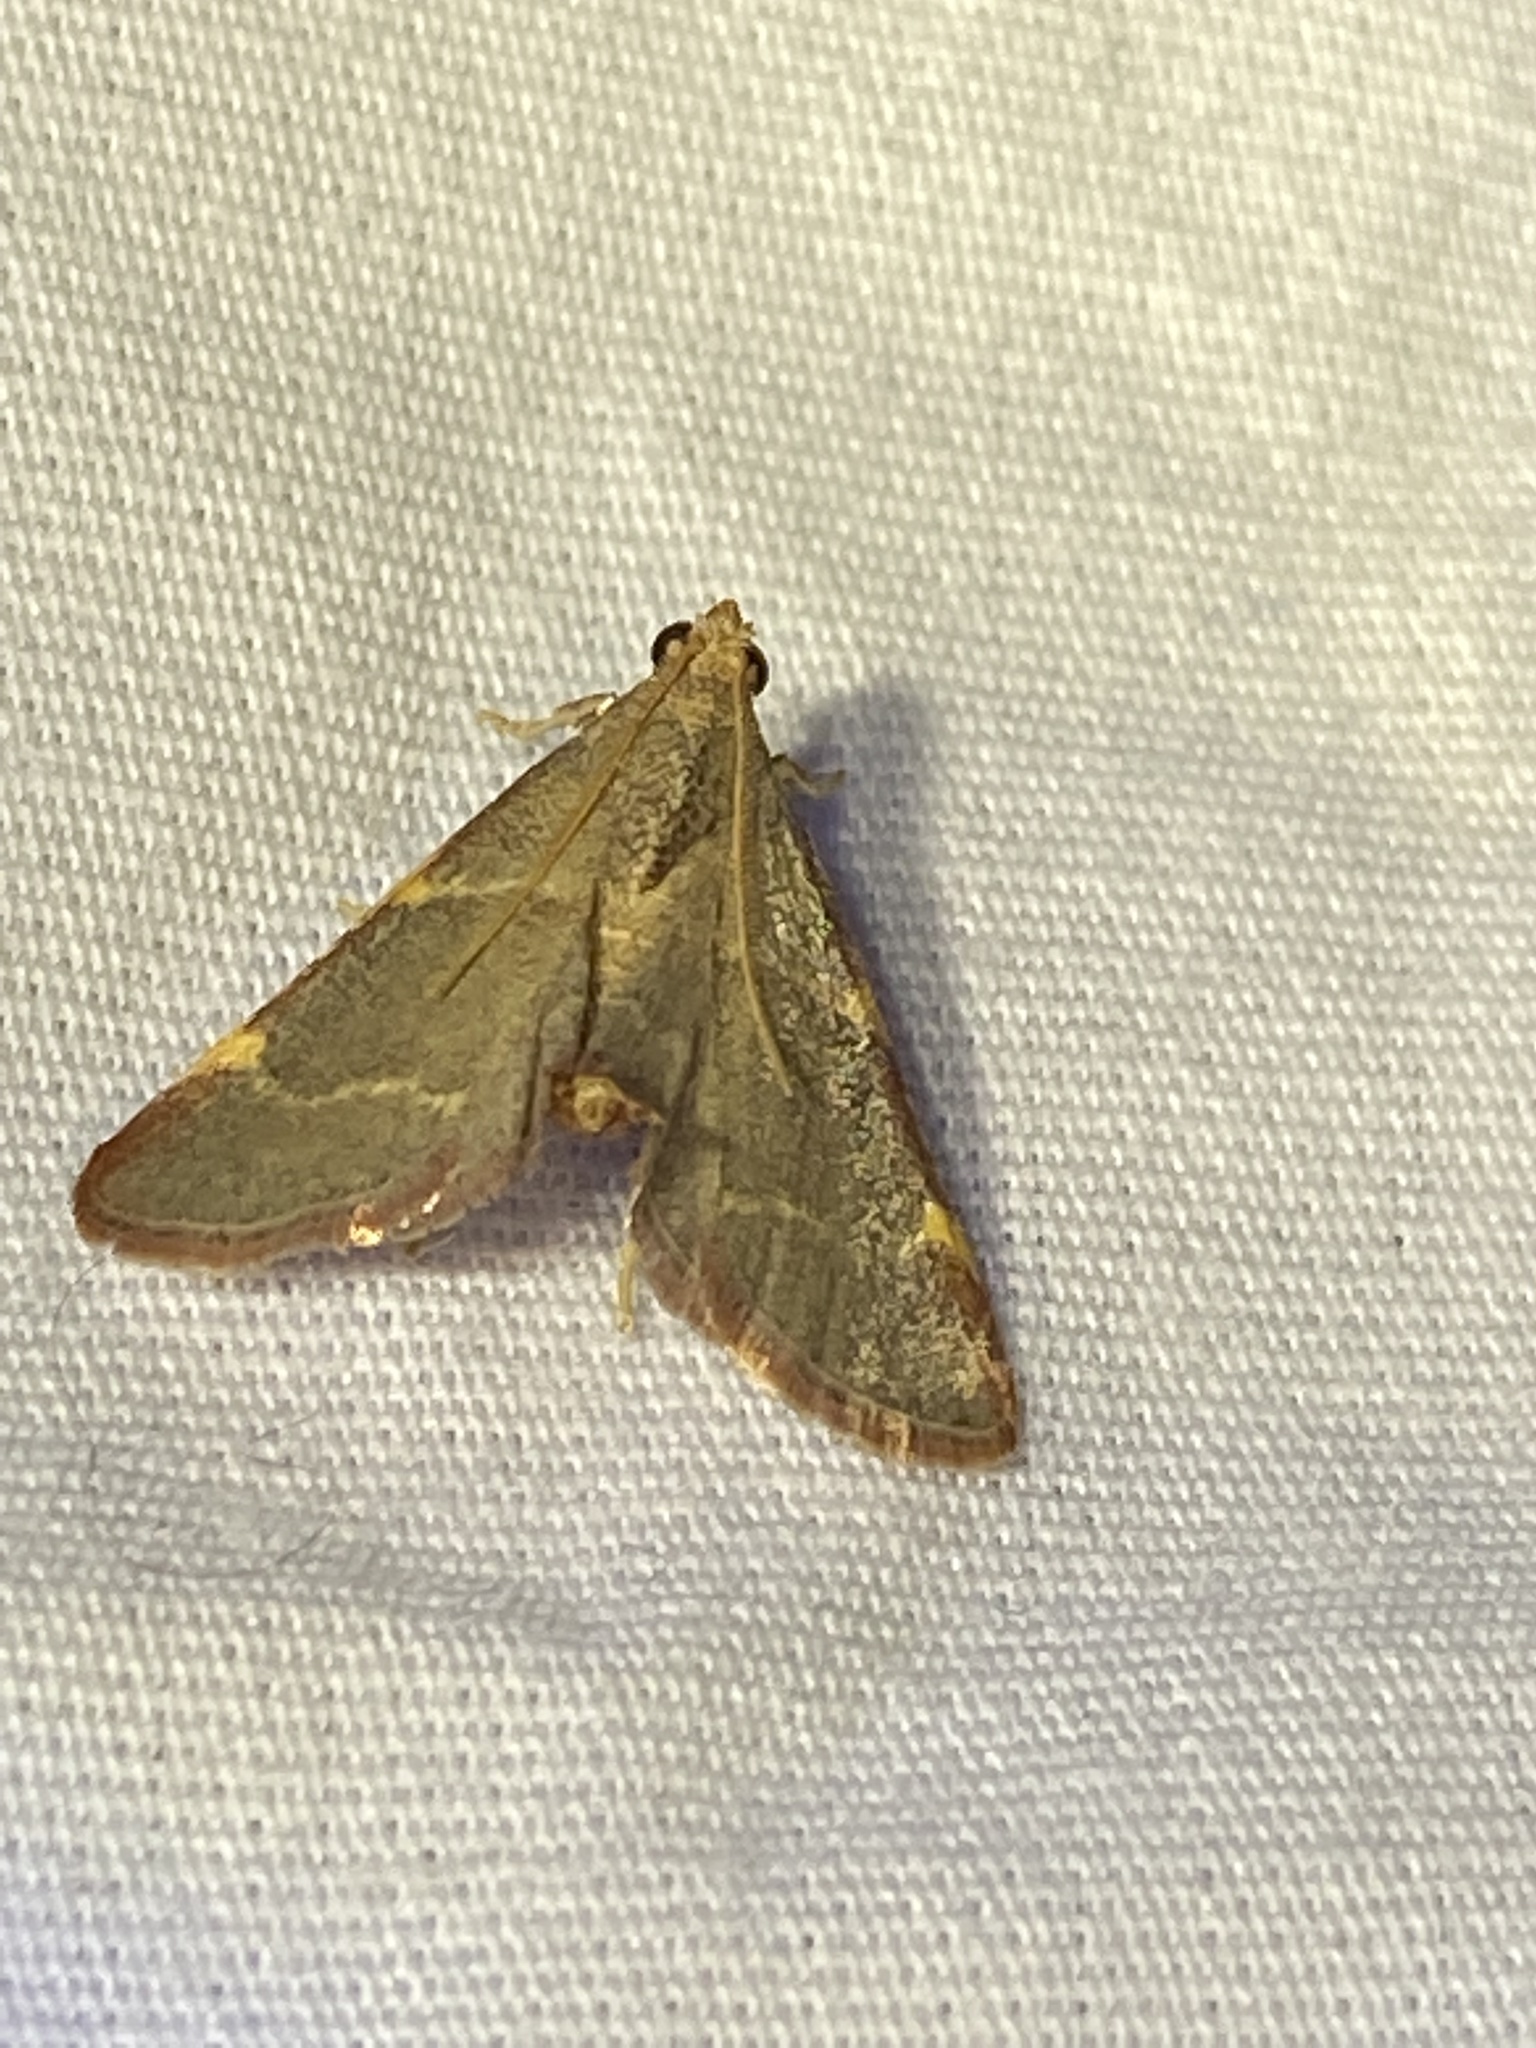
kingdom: Animalia
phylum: Arthropoda
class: Insecta
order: Lepidoptera
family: Pyralidae
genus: Hypsopygia
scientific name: Hypsopygia binodulalis
